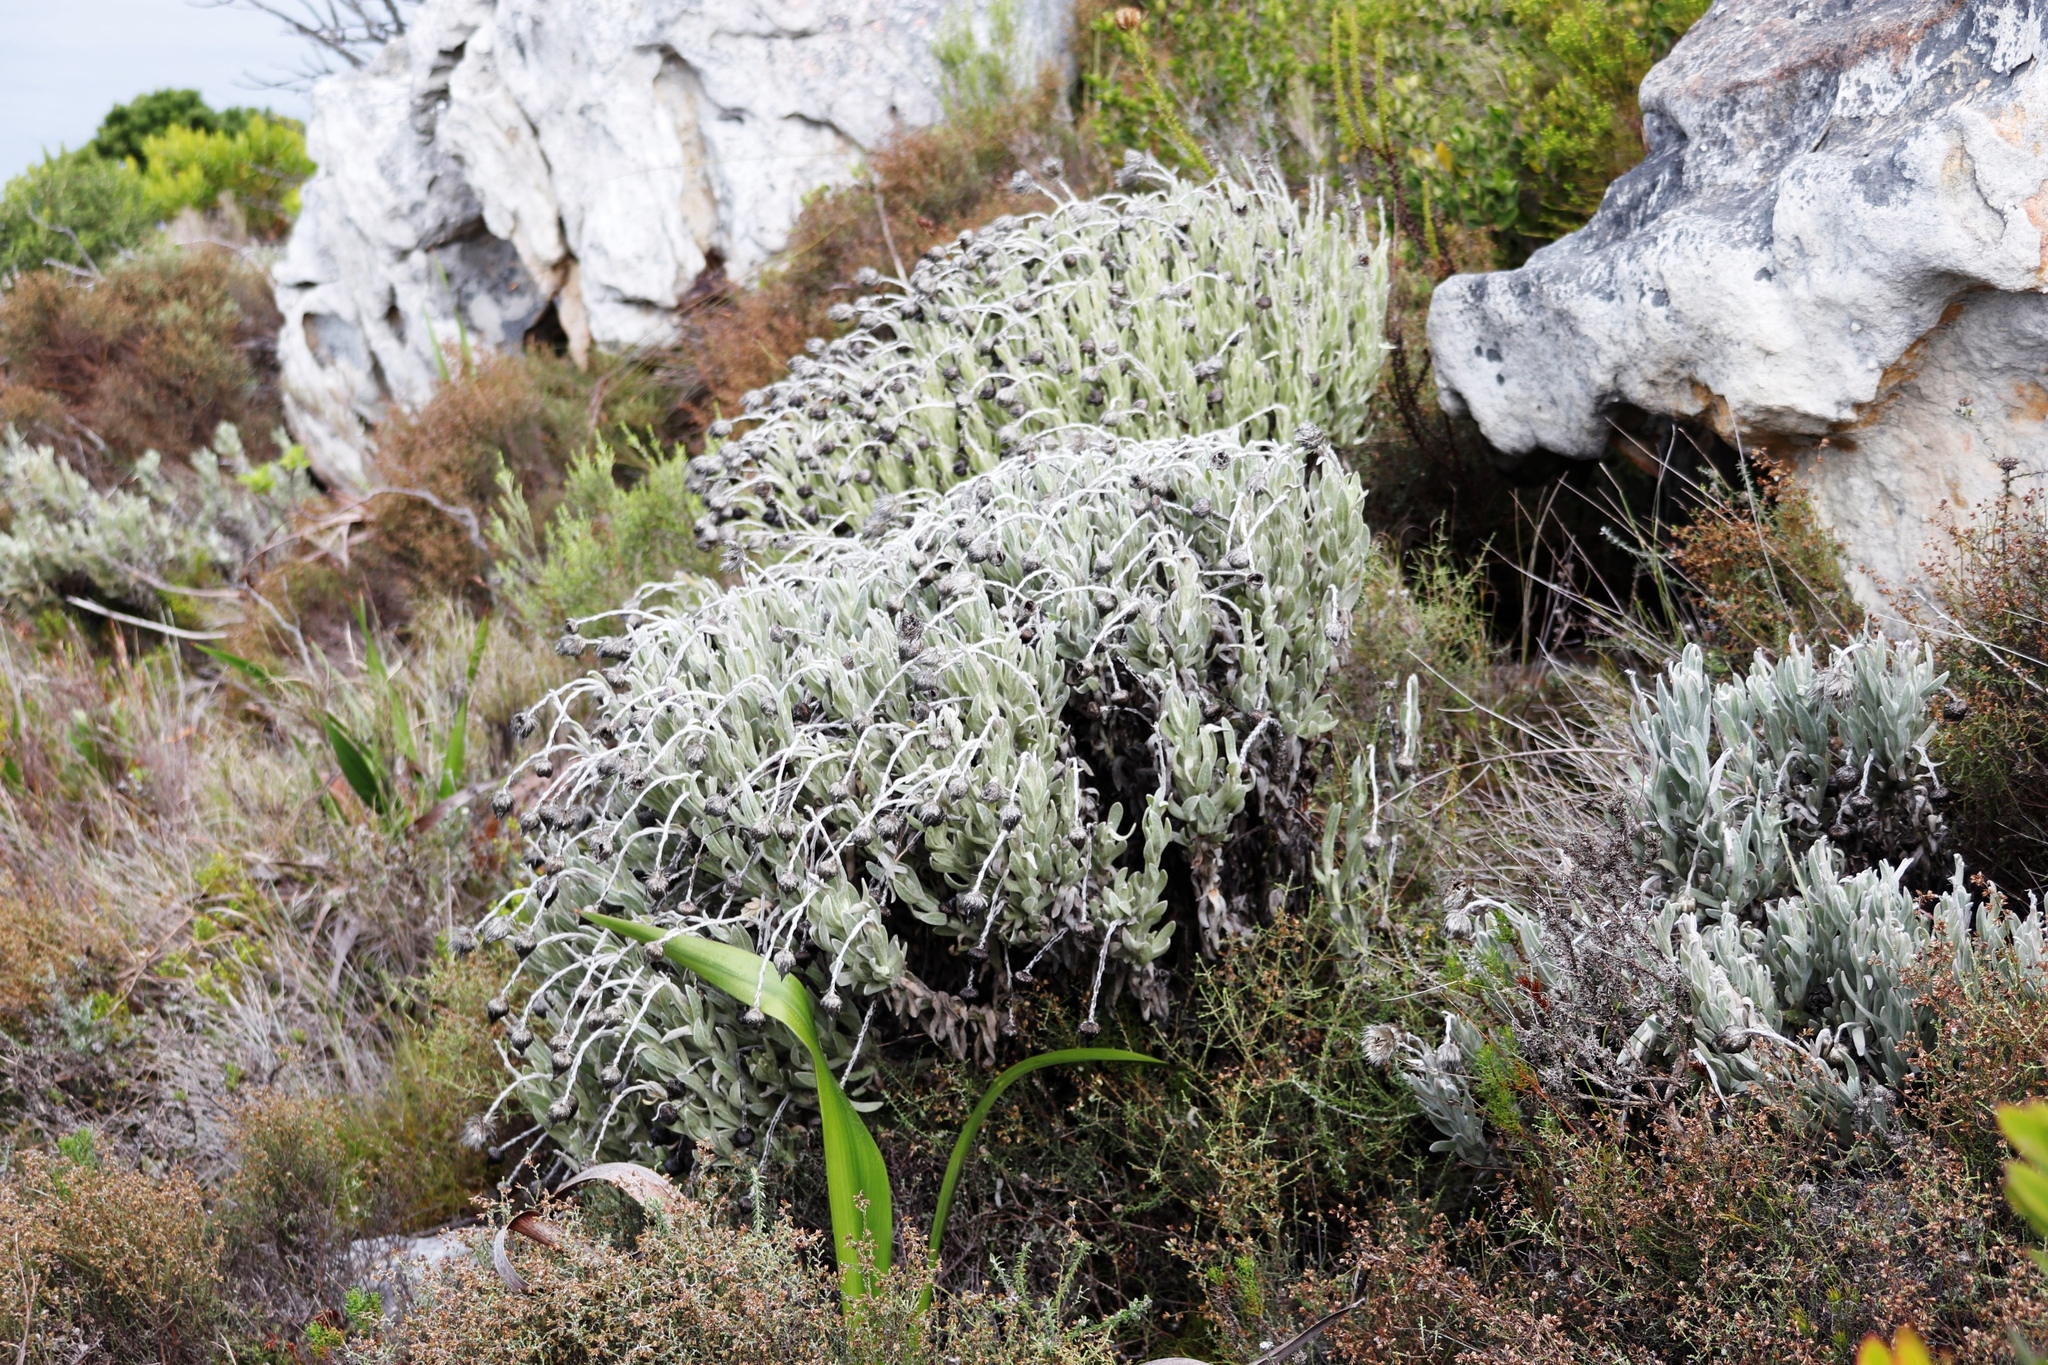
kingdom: Plantae
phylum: Tracheophyta
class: Magnoliopsida
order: Asterales
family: Asteraceae
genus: Syncarpha
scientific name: Syncarpha vestita
